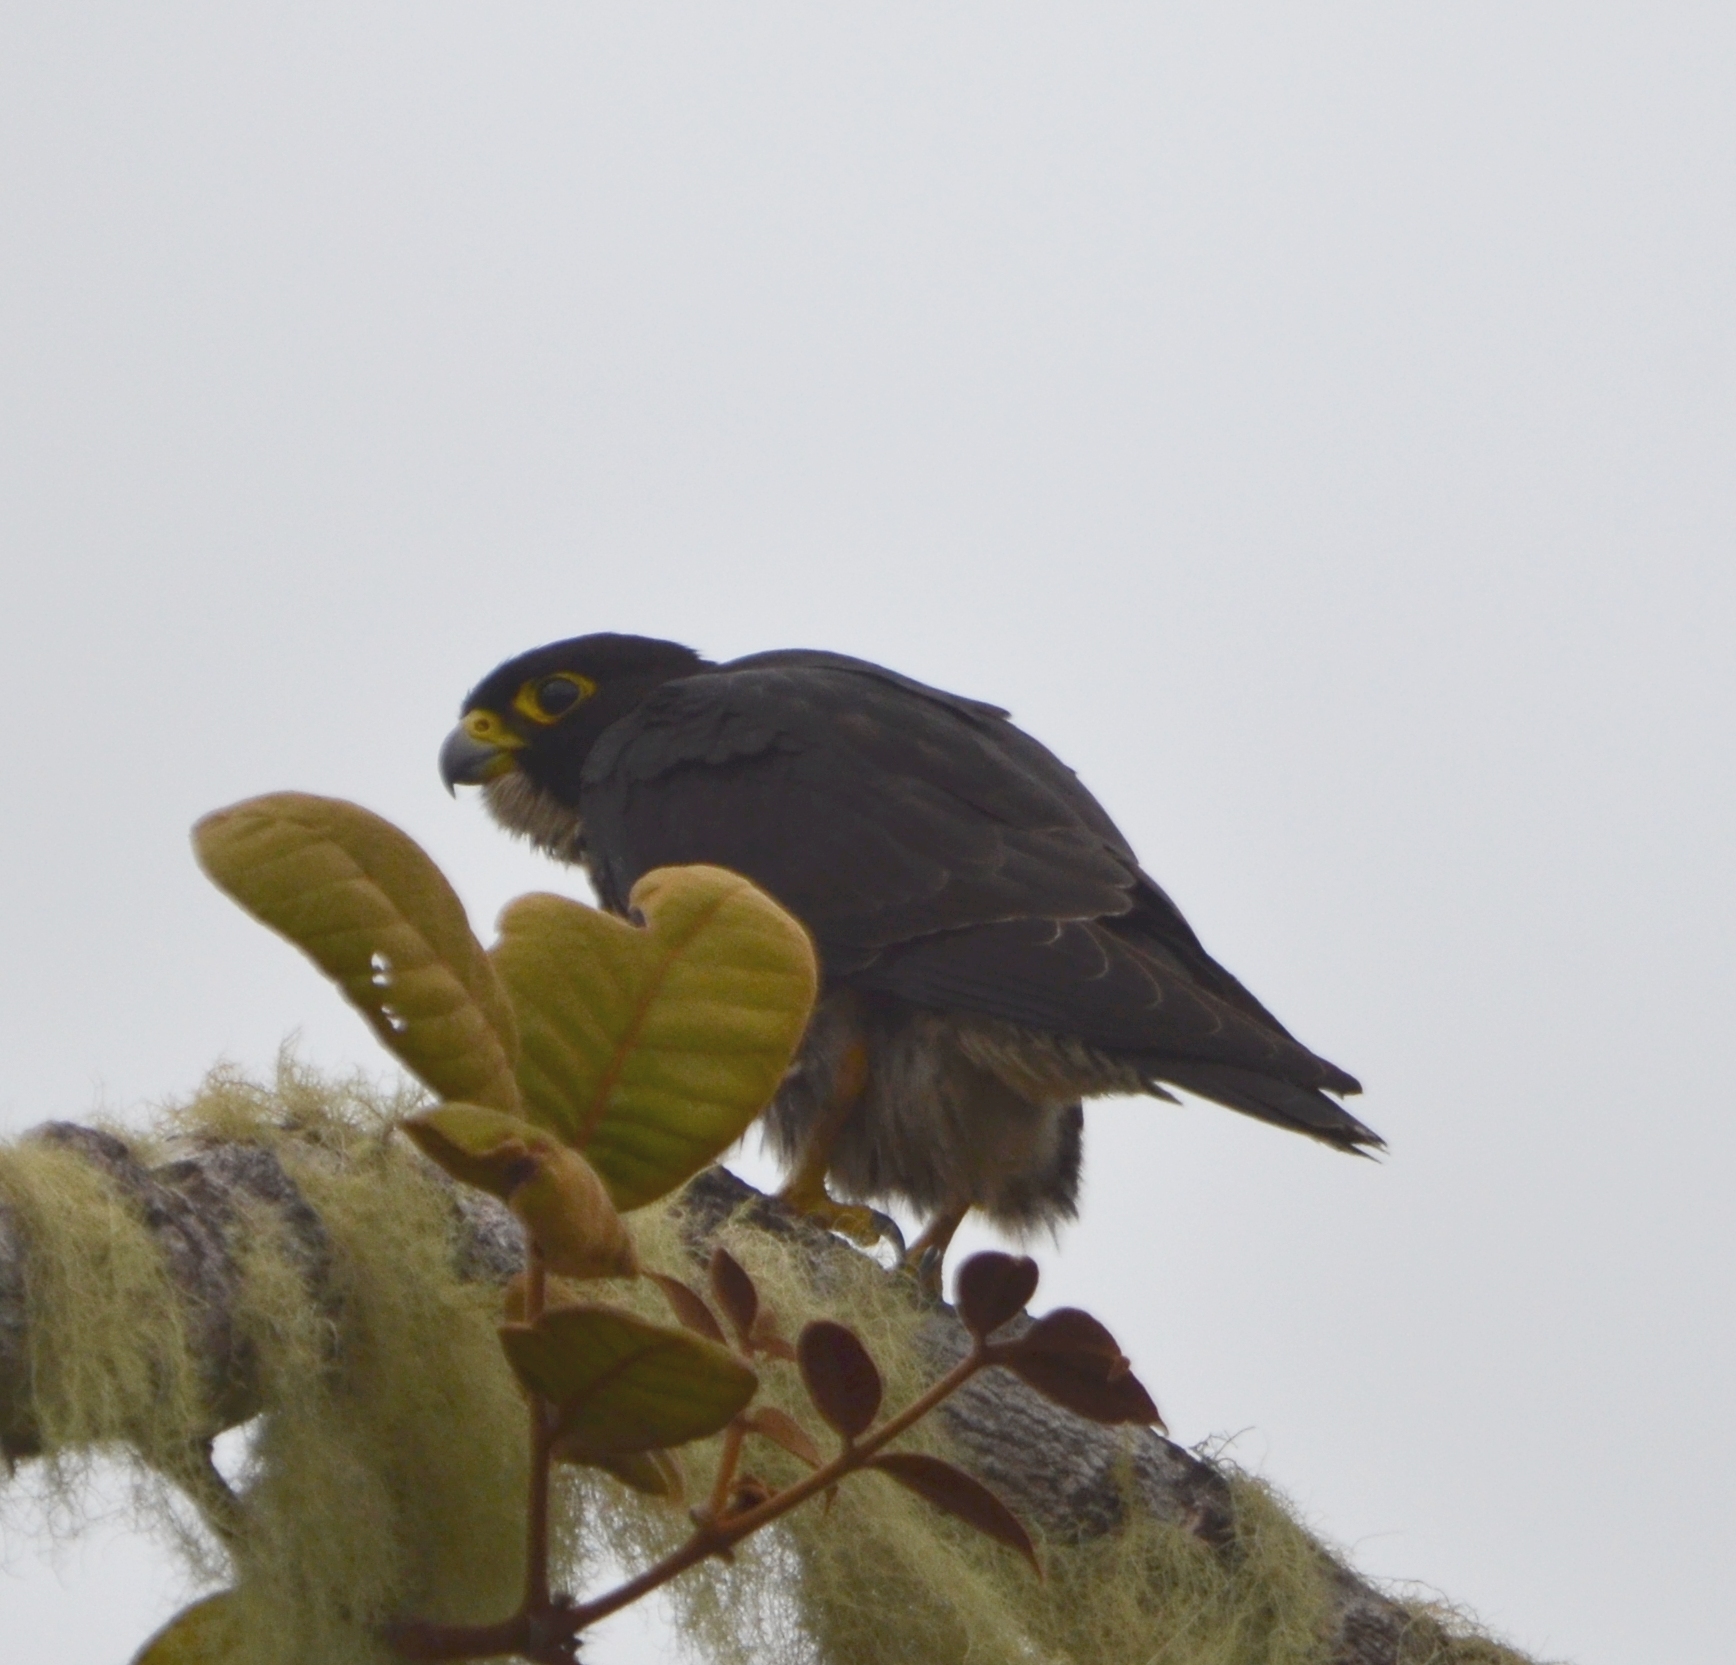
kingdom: Animalia
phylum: Chordata
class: Aves
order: Falconiformes
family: Falconidae
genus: Falco
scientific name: Falco peregrinus
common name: Peregrine falcon
